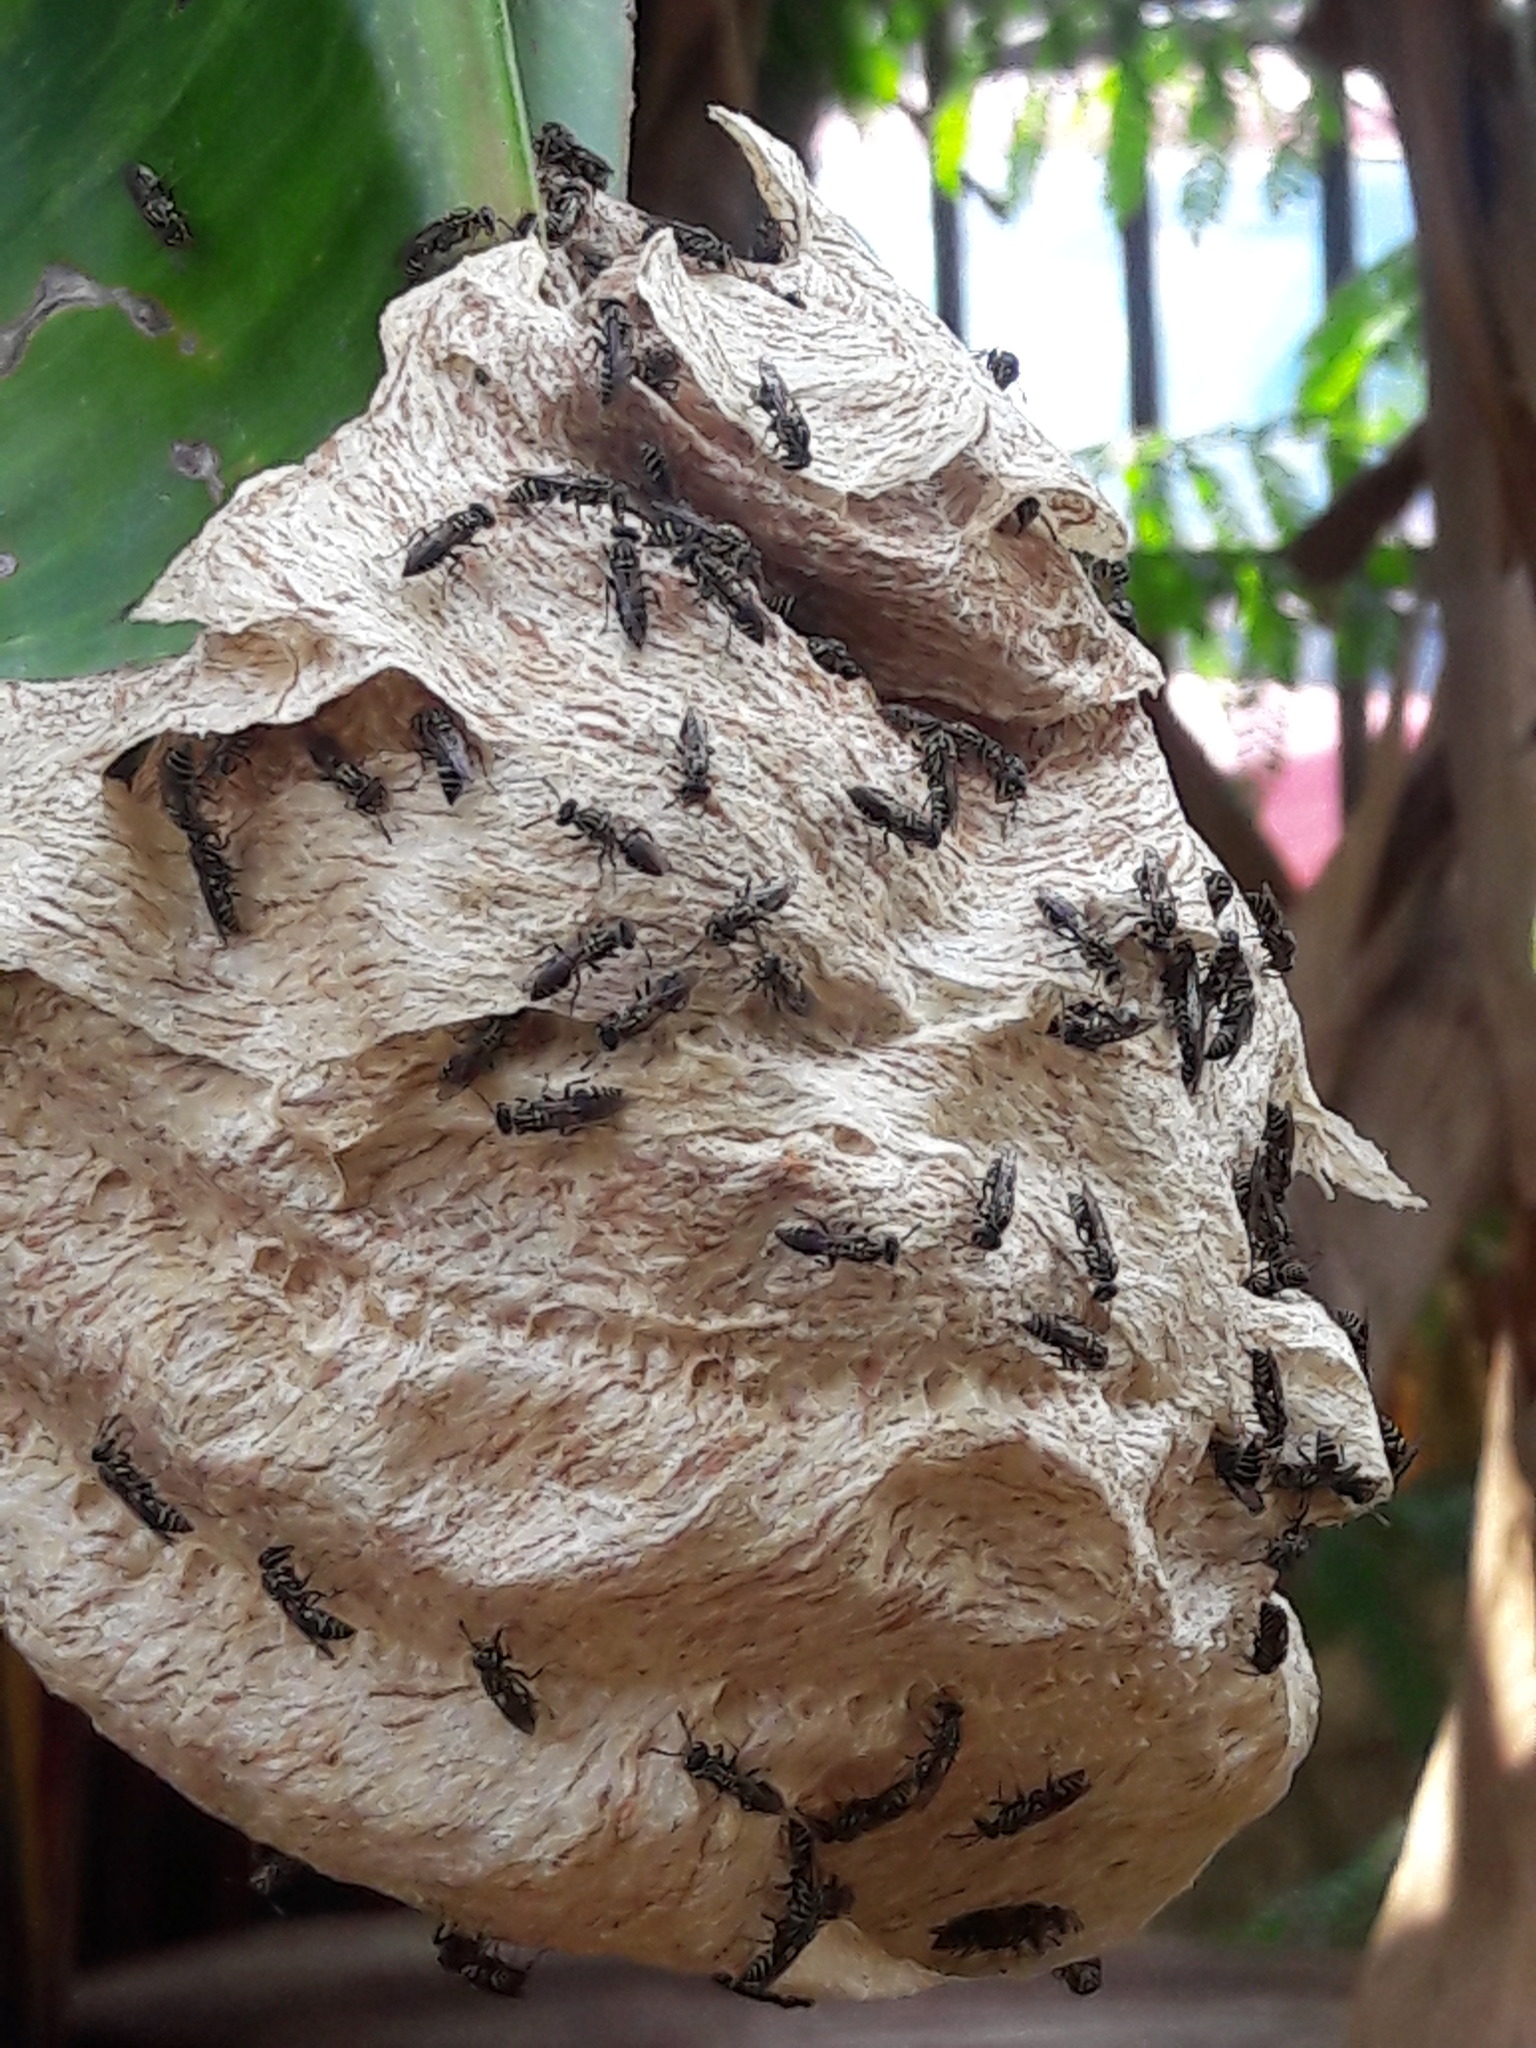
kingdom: Animalia
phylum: Arthropoda
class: Insecta
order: Hymenoptera
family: Vespidae
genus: Protopolybia
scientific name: Protopolybia exigua
